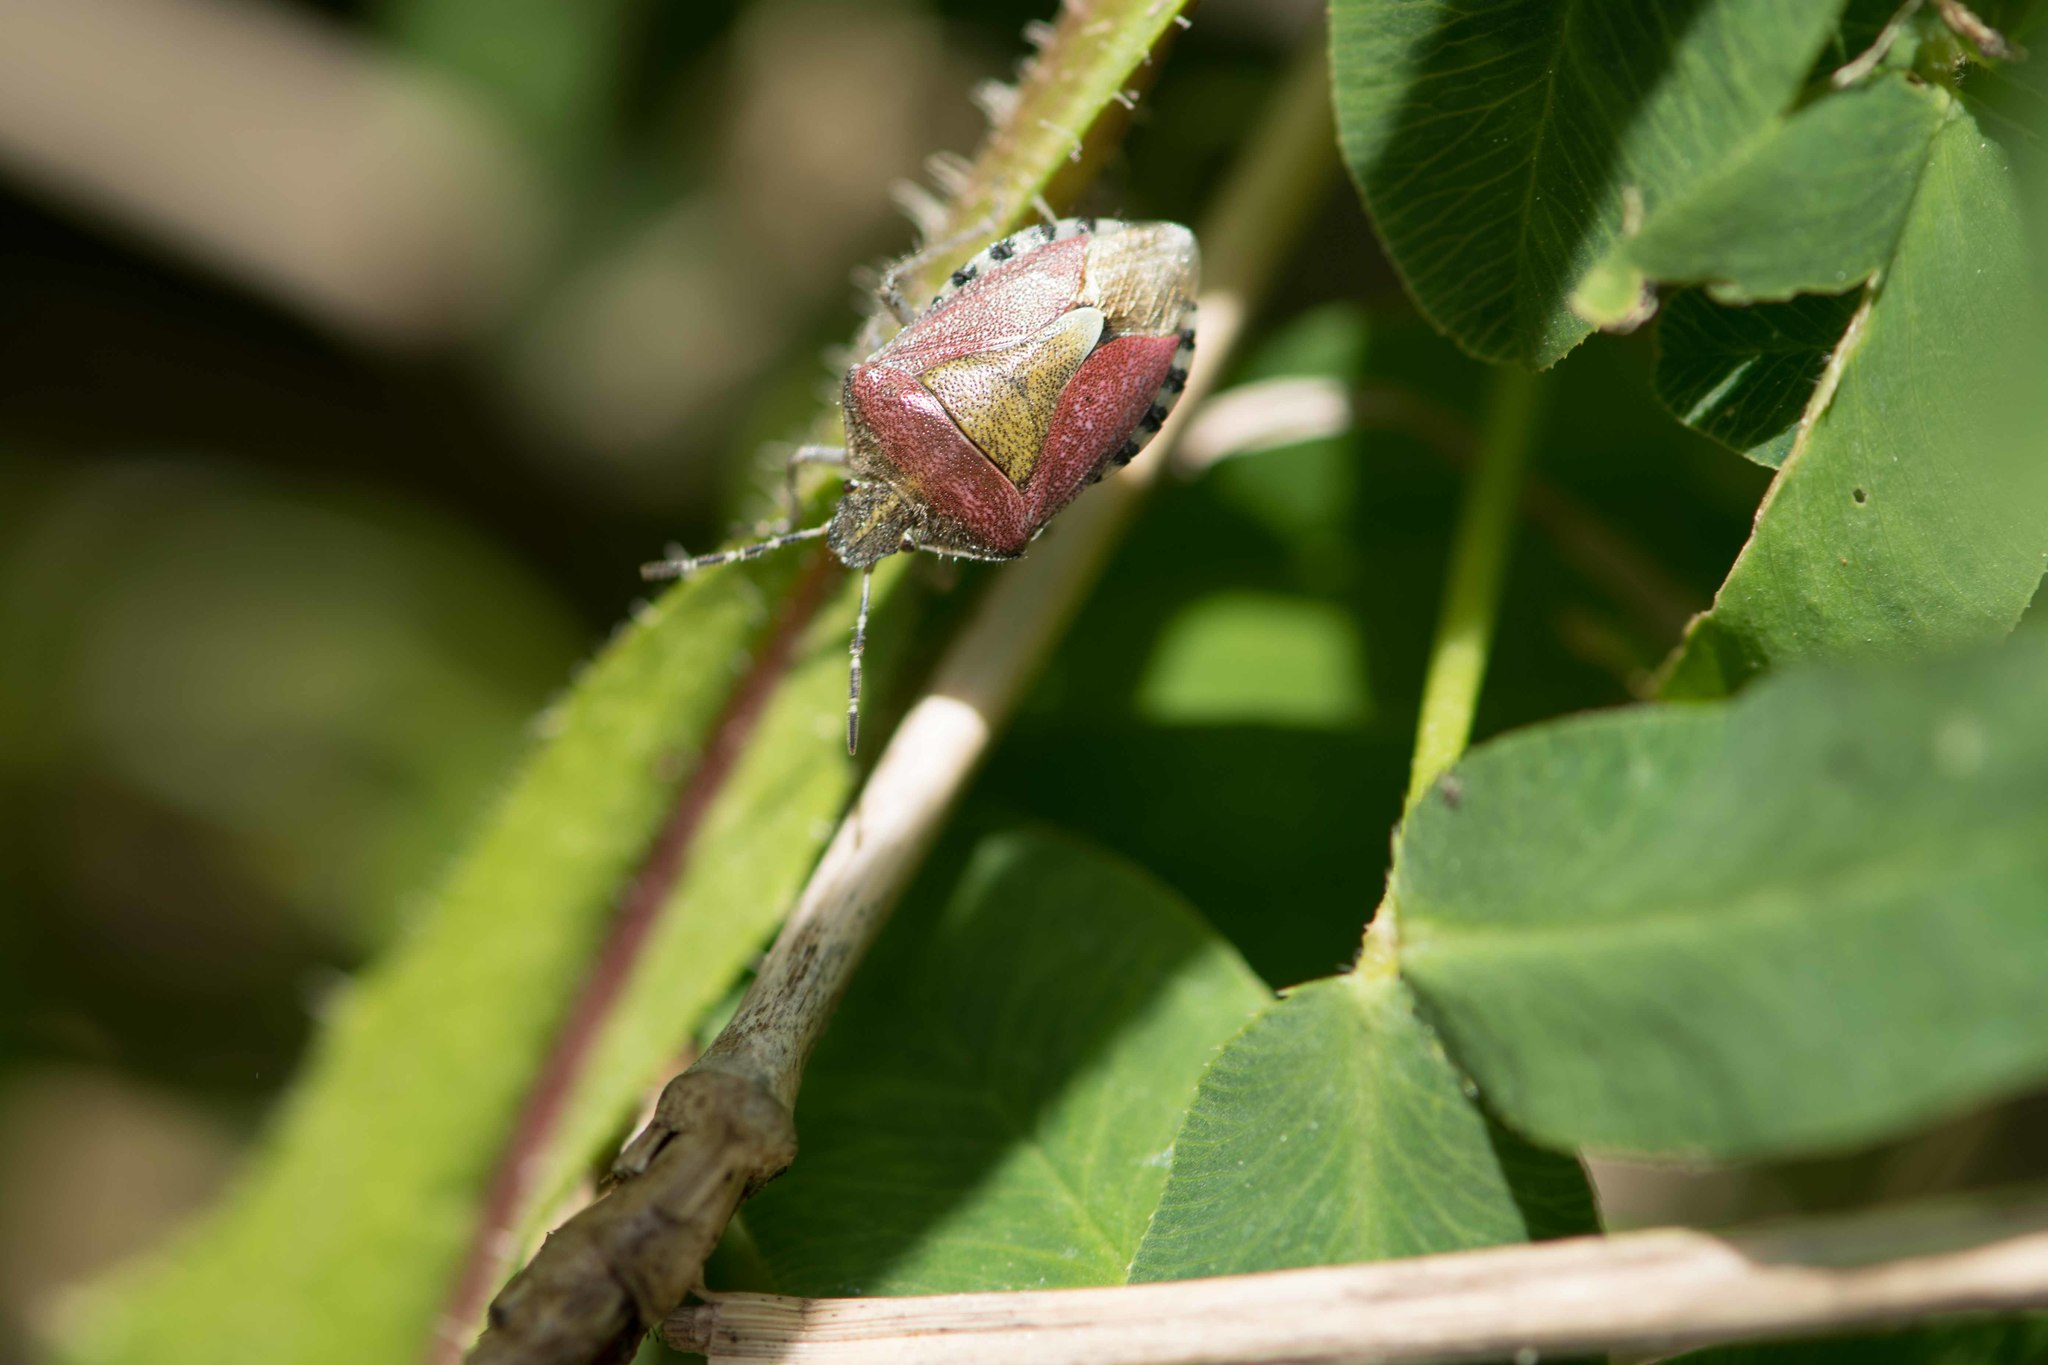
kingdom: Animalia
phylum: Arthropoda
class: Insecta
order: Hemiptera
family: Pentatomidae
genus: Dolycoris
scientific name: Dolycoris baccarum
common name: Sloe bug
